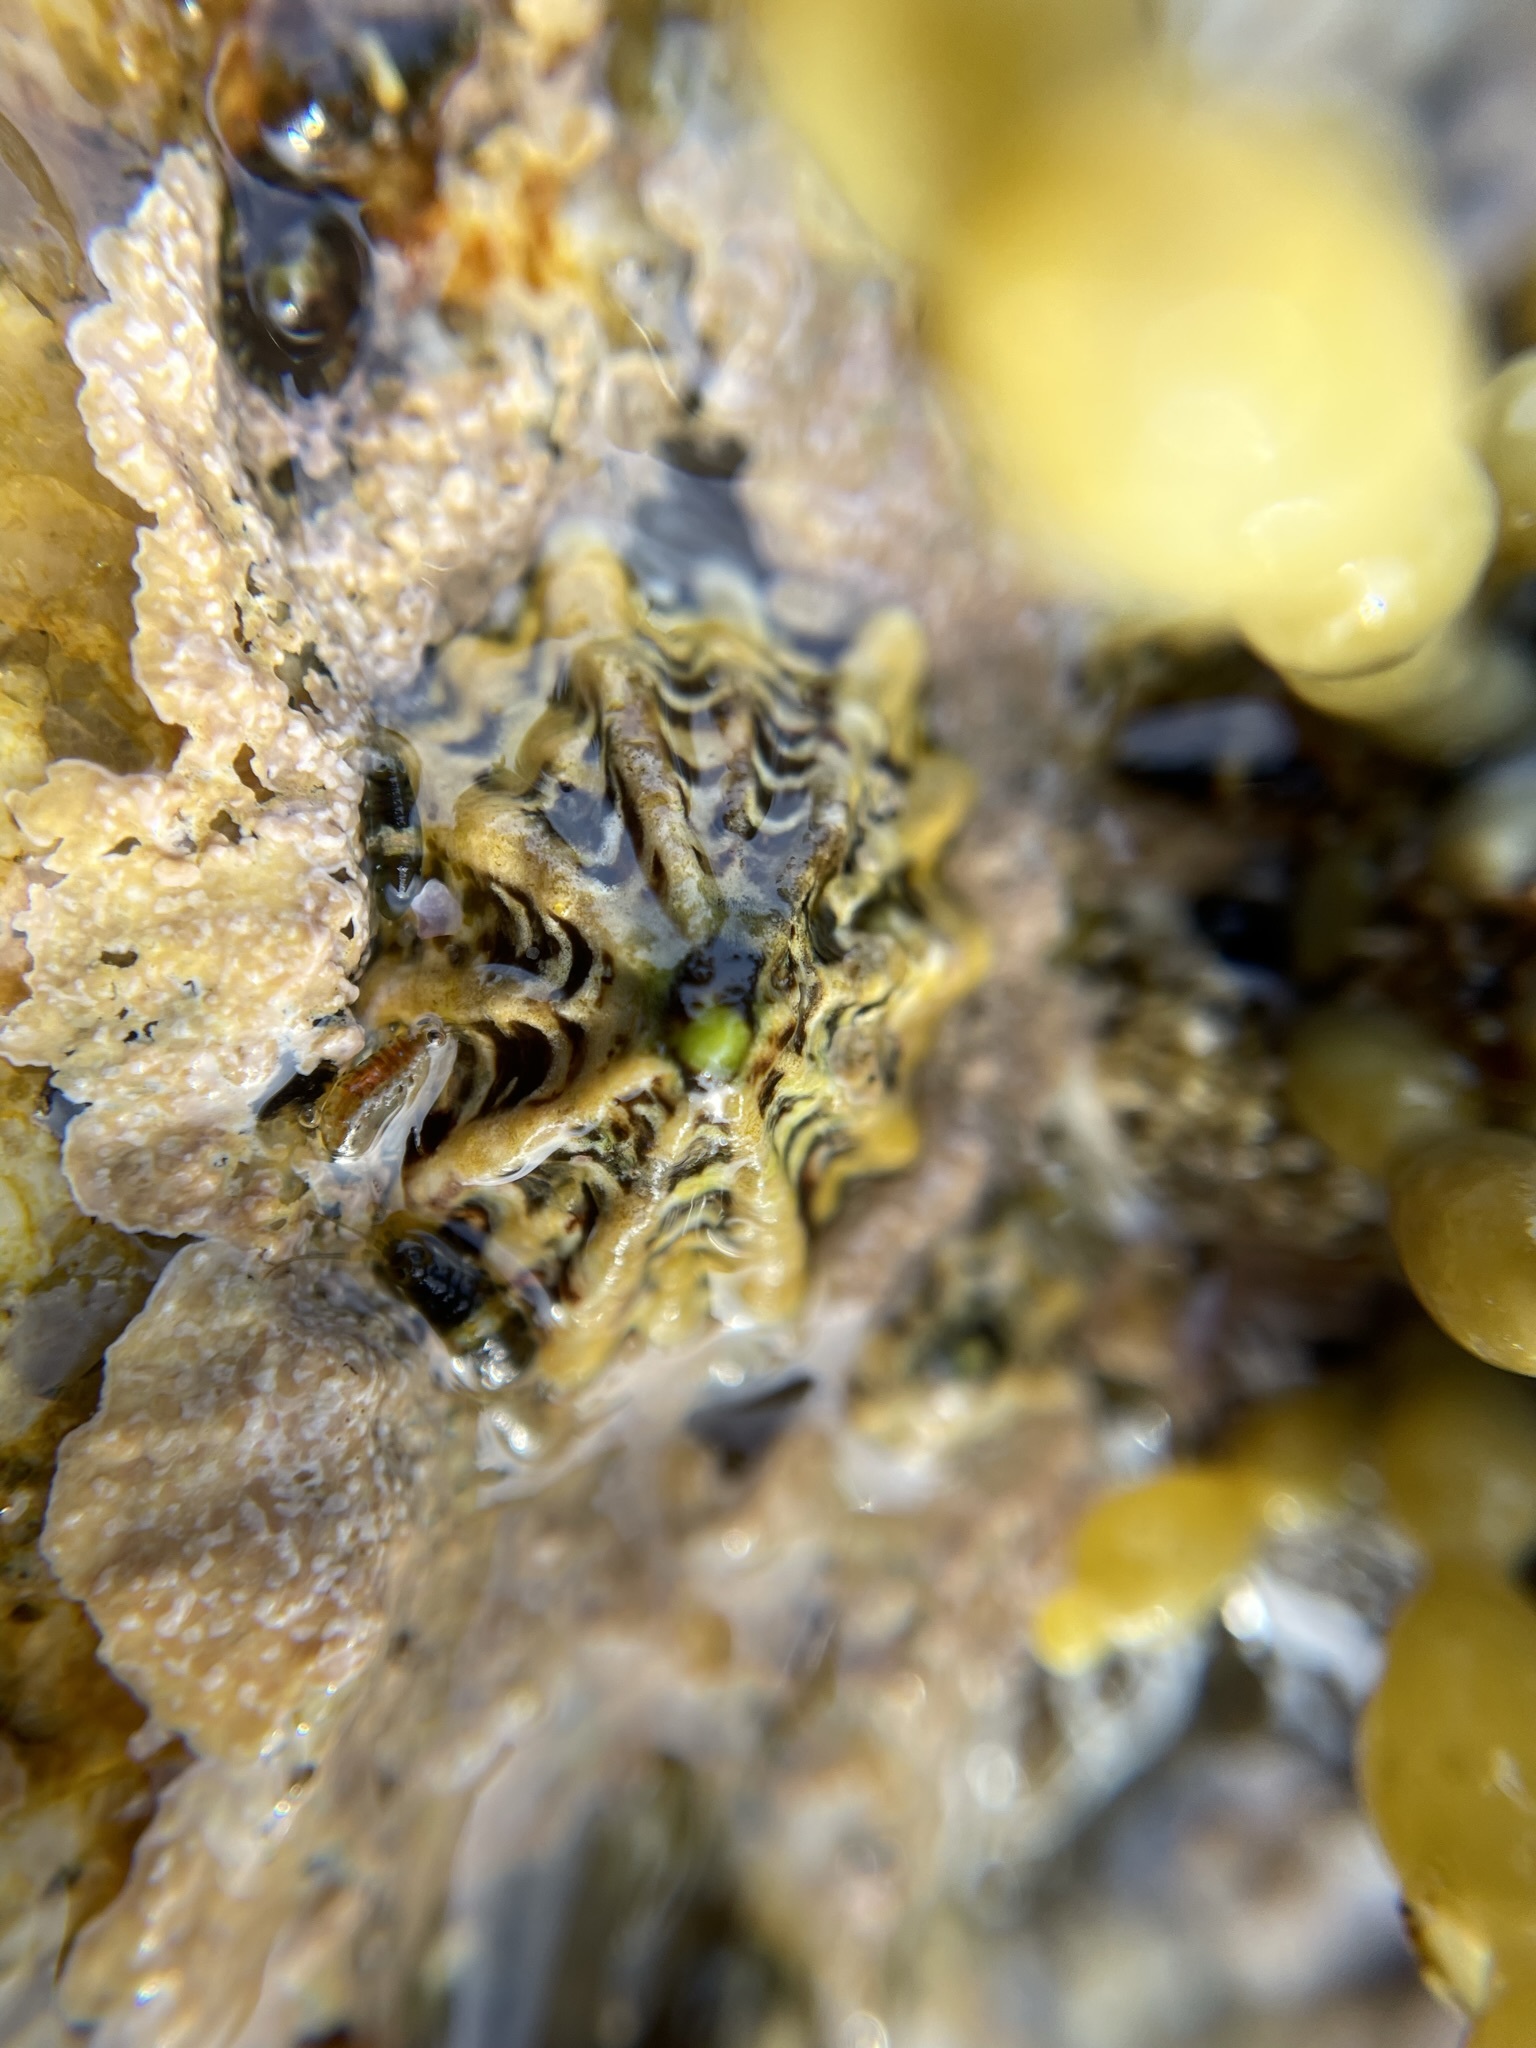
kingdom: Animalia
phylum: Mollusca
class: Gastropoda
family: Lottiidae
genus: Patelloida
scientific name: Patelloida alticostata
